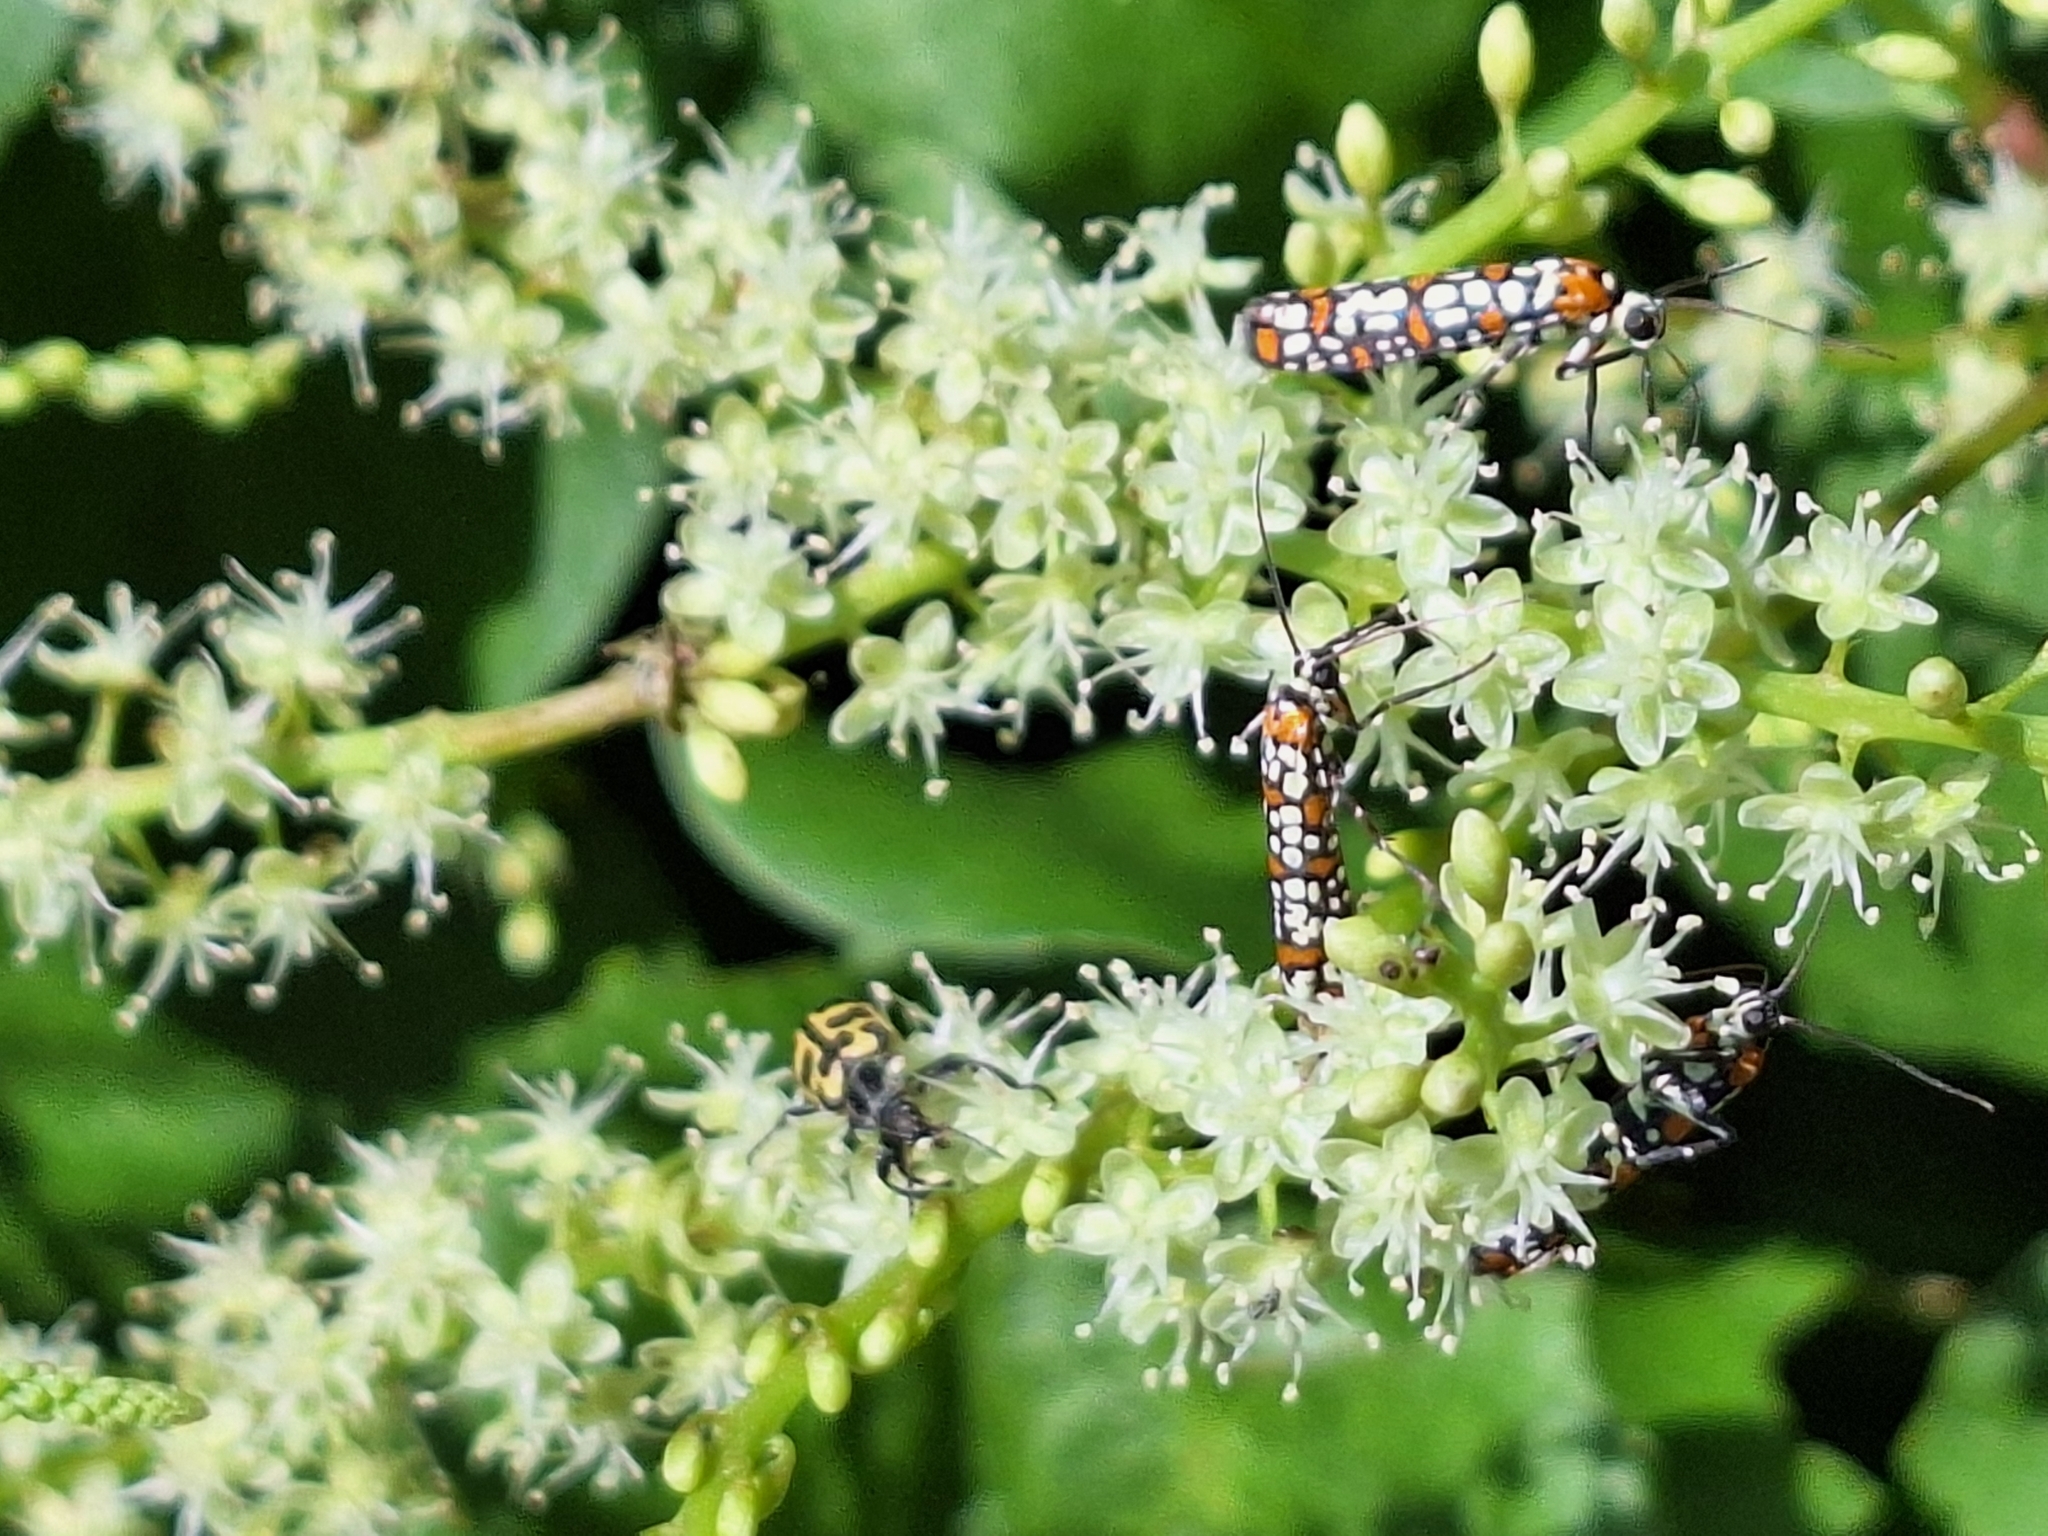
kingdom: Animalia
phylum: Arthropoda
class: Insecta
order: Lepidoptera
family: Attevidae
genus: Atteva
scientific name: Atteva punctella
